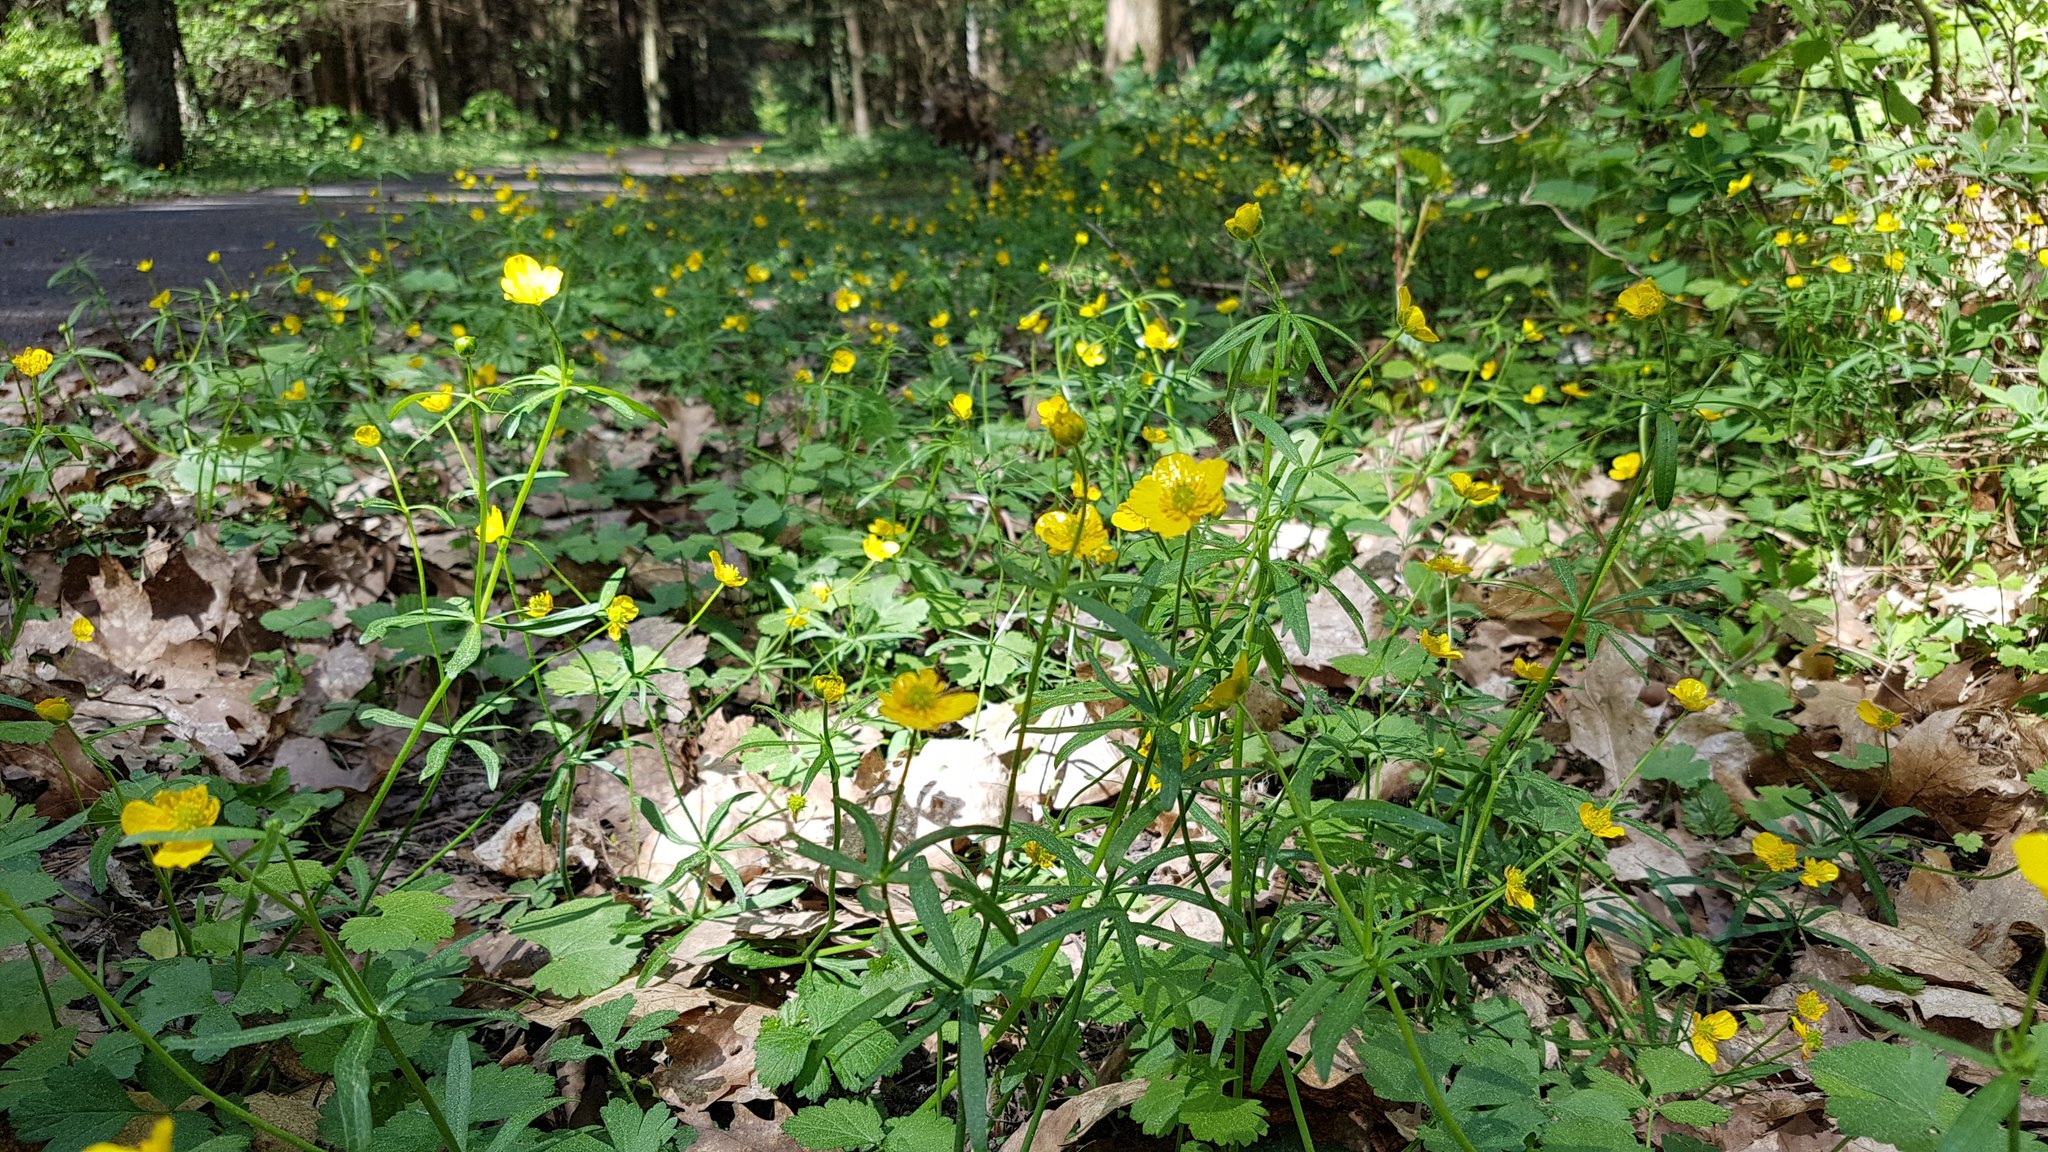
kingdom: Plantae
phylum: Tracheophyta
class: Magnoliopsida
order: Ranunculales
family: Ranunculaceae
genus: Ranunculus
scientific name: Ranunculus auricomus
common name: Goldilocks buttercup
